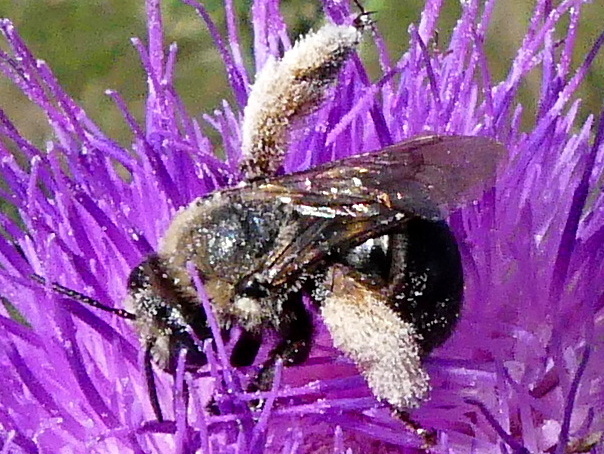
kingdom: Animalia
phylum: Arthropoda
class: Insecta
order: Hymenoptera
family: Apidae
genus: Melissodes
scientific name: Melissodes desponsus
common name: Thistle long-horned bee
